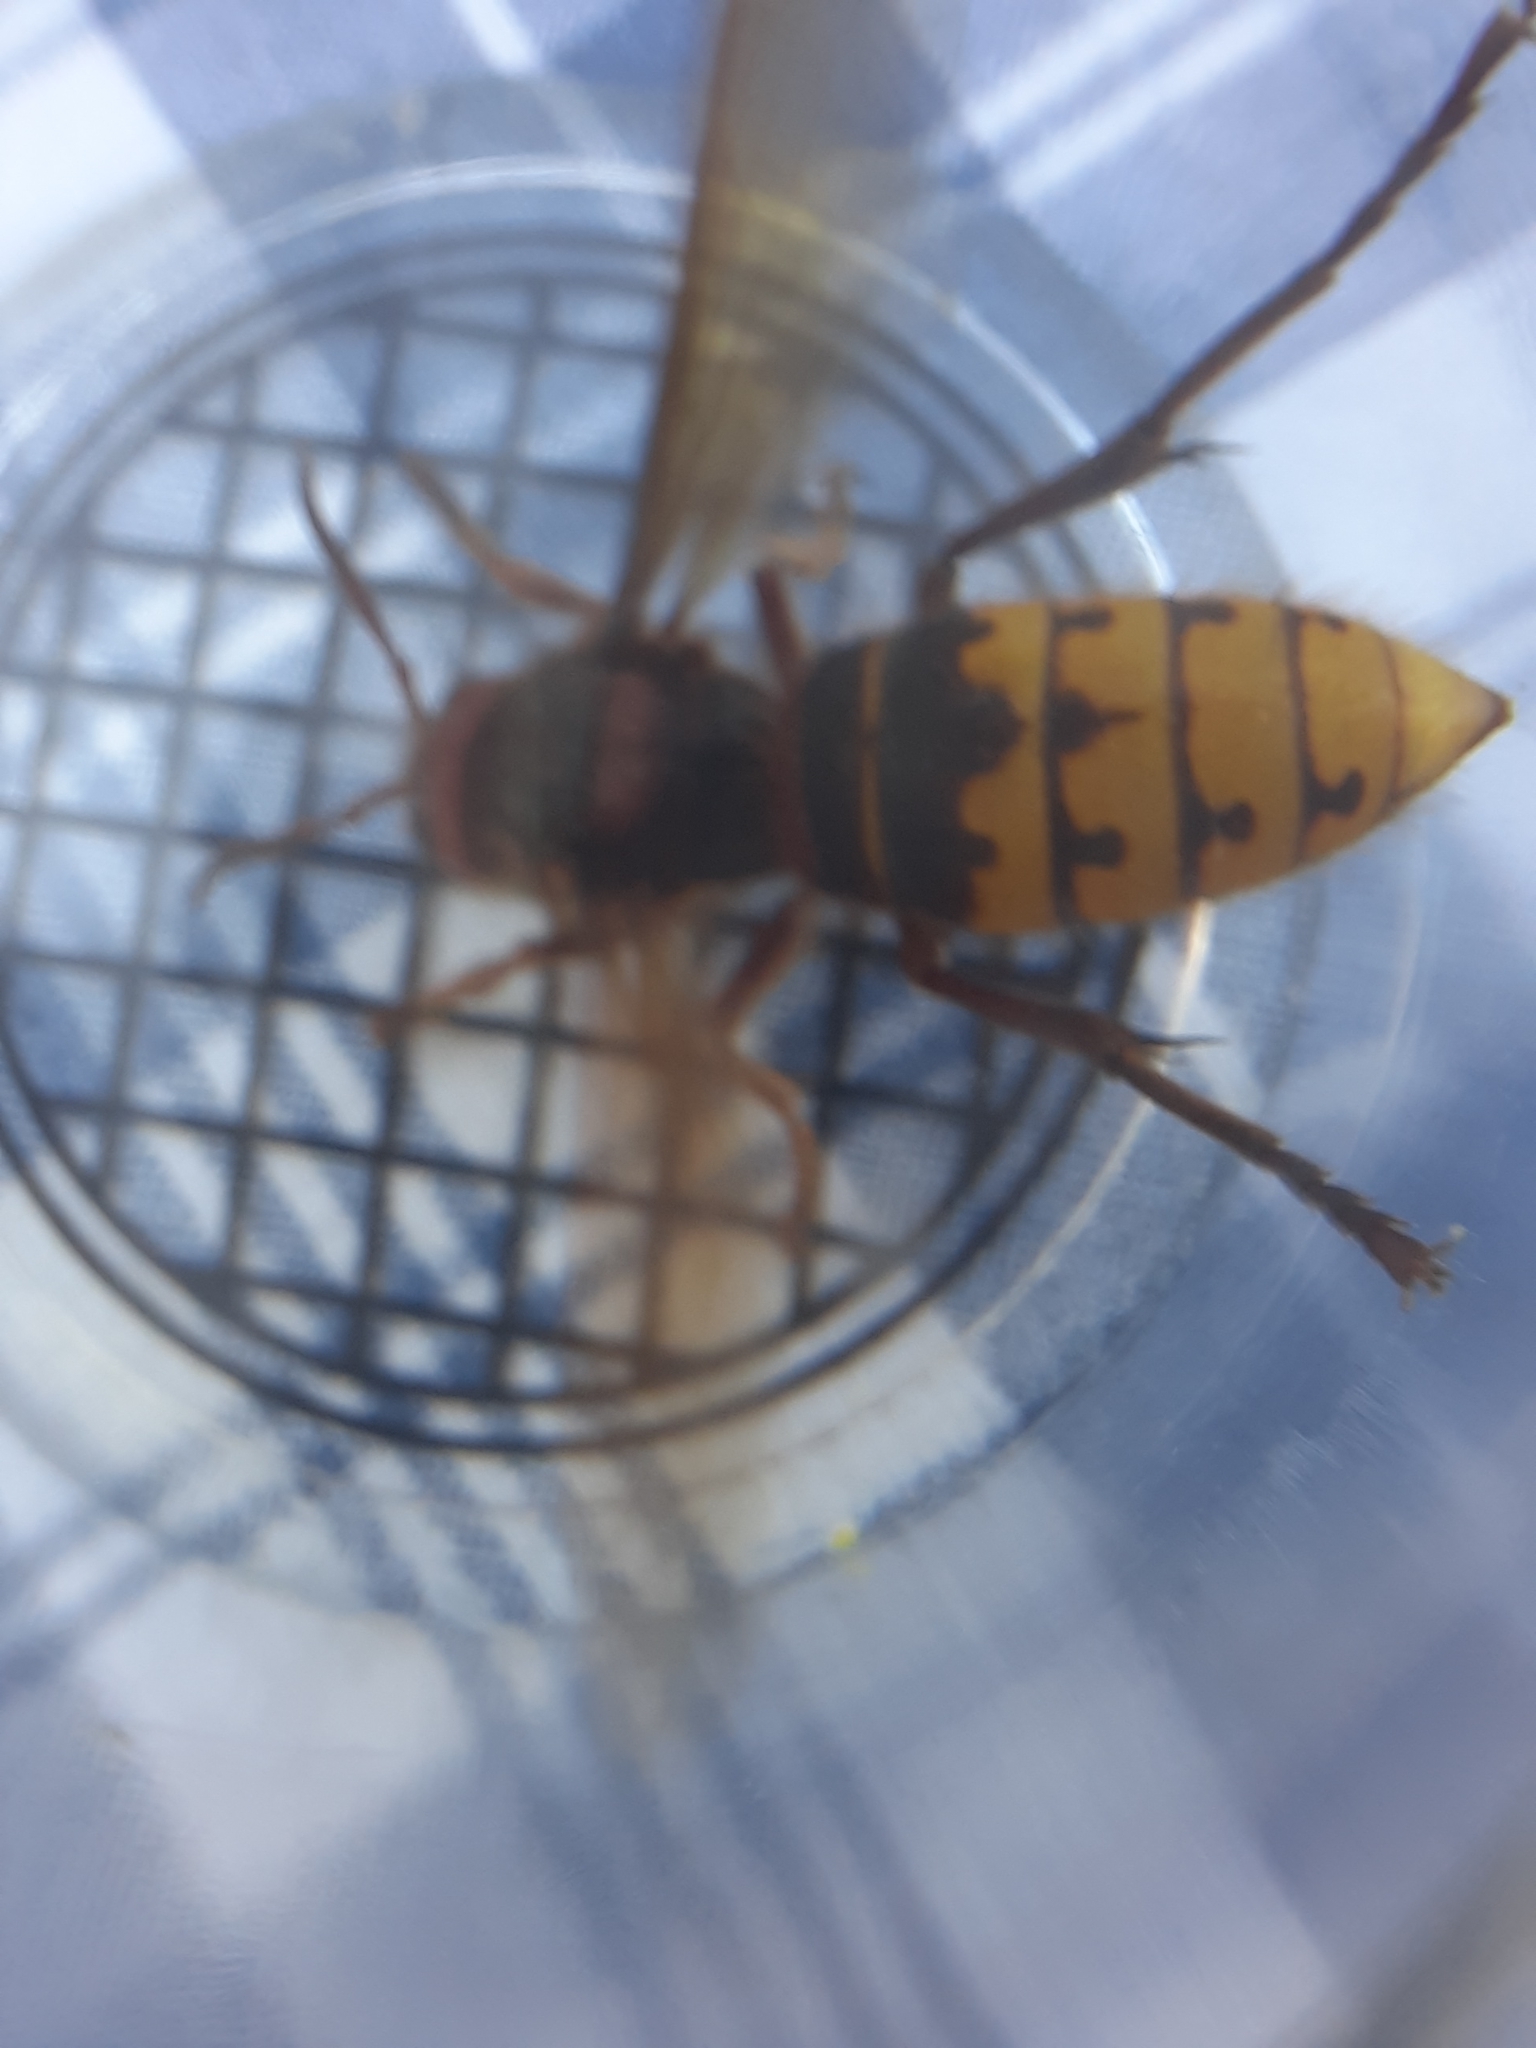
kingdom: Animalia
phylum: Arthropoda
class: Insecta
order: Hymenoptera
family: Vespidae
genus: Vespa
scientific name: Vespa crabro
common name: Hornet
